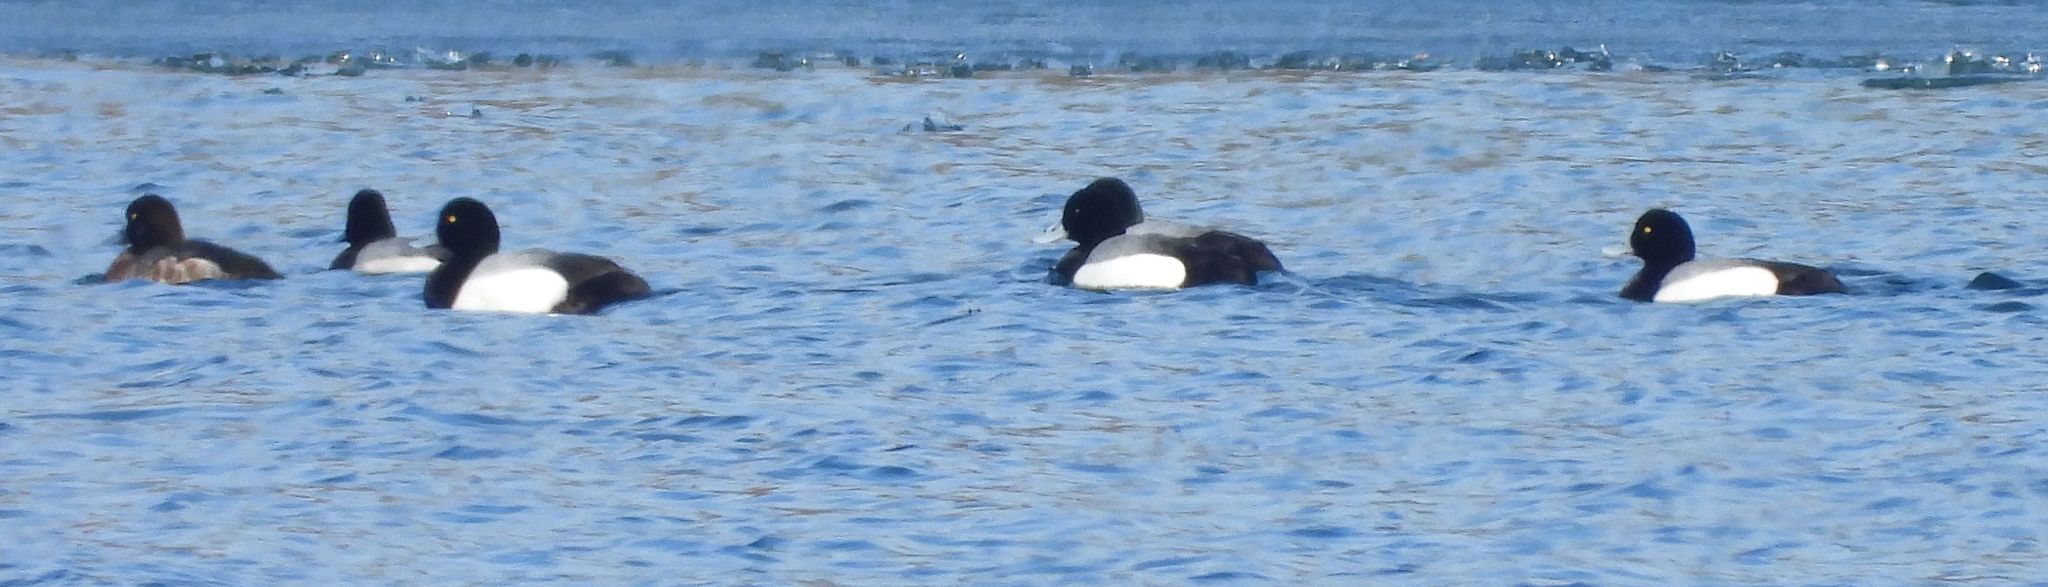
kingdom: Animalia
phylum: Chordata
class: Aves
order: Anseriformes
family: Anatidae
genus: Aythya
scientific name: Aythya marila
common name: Greater scaup
